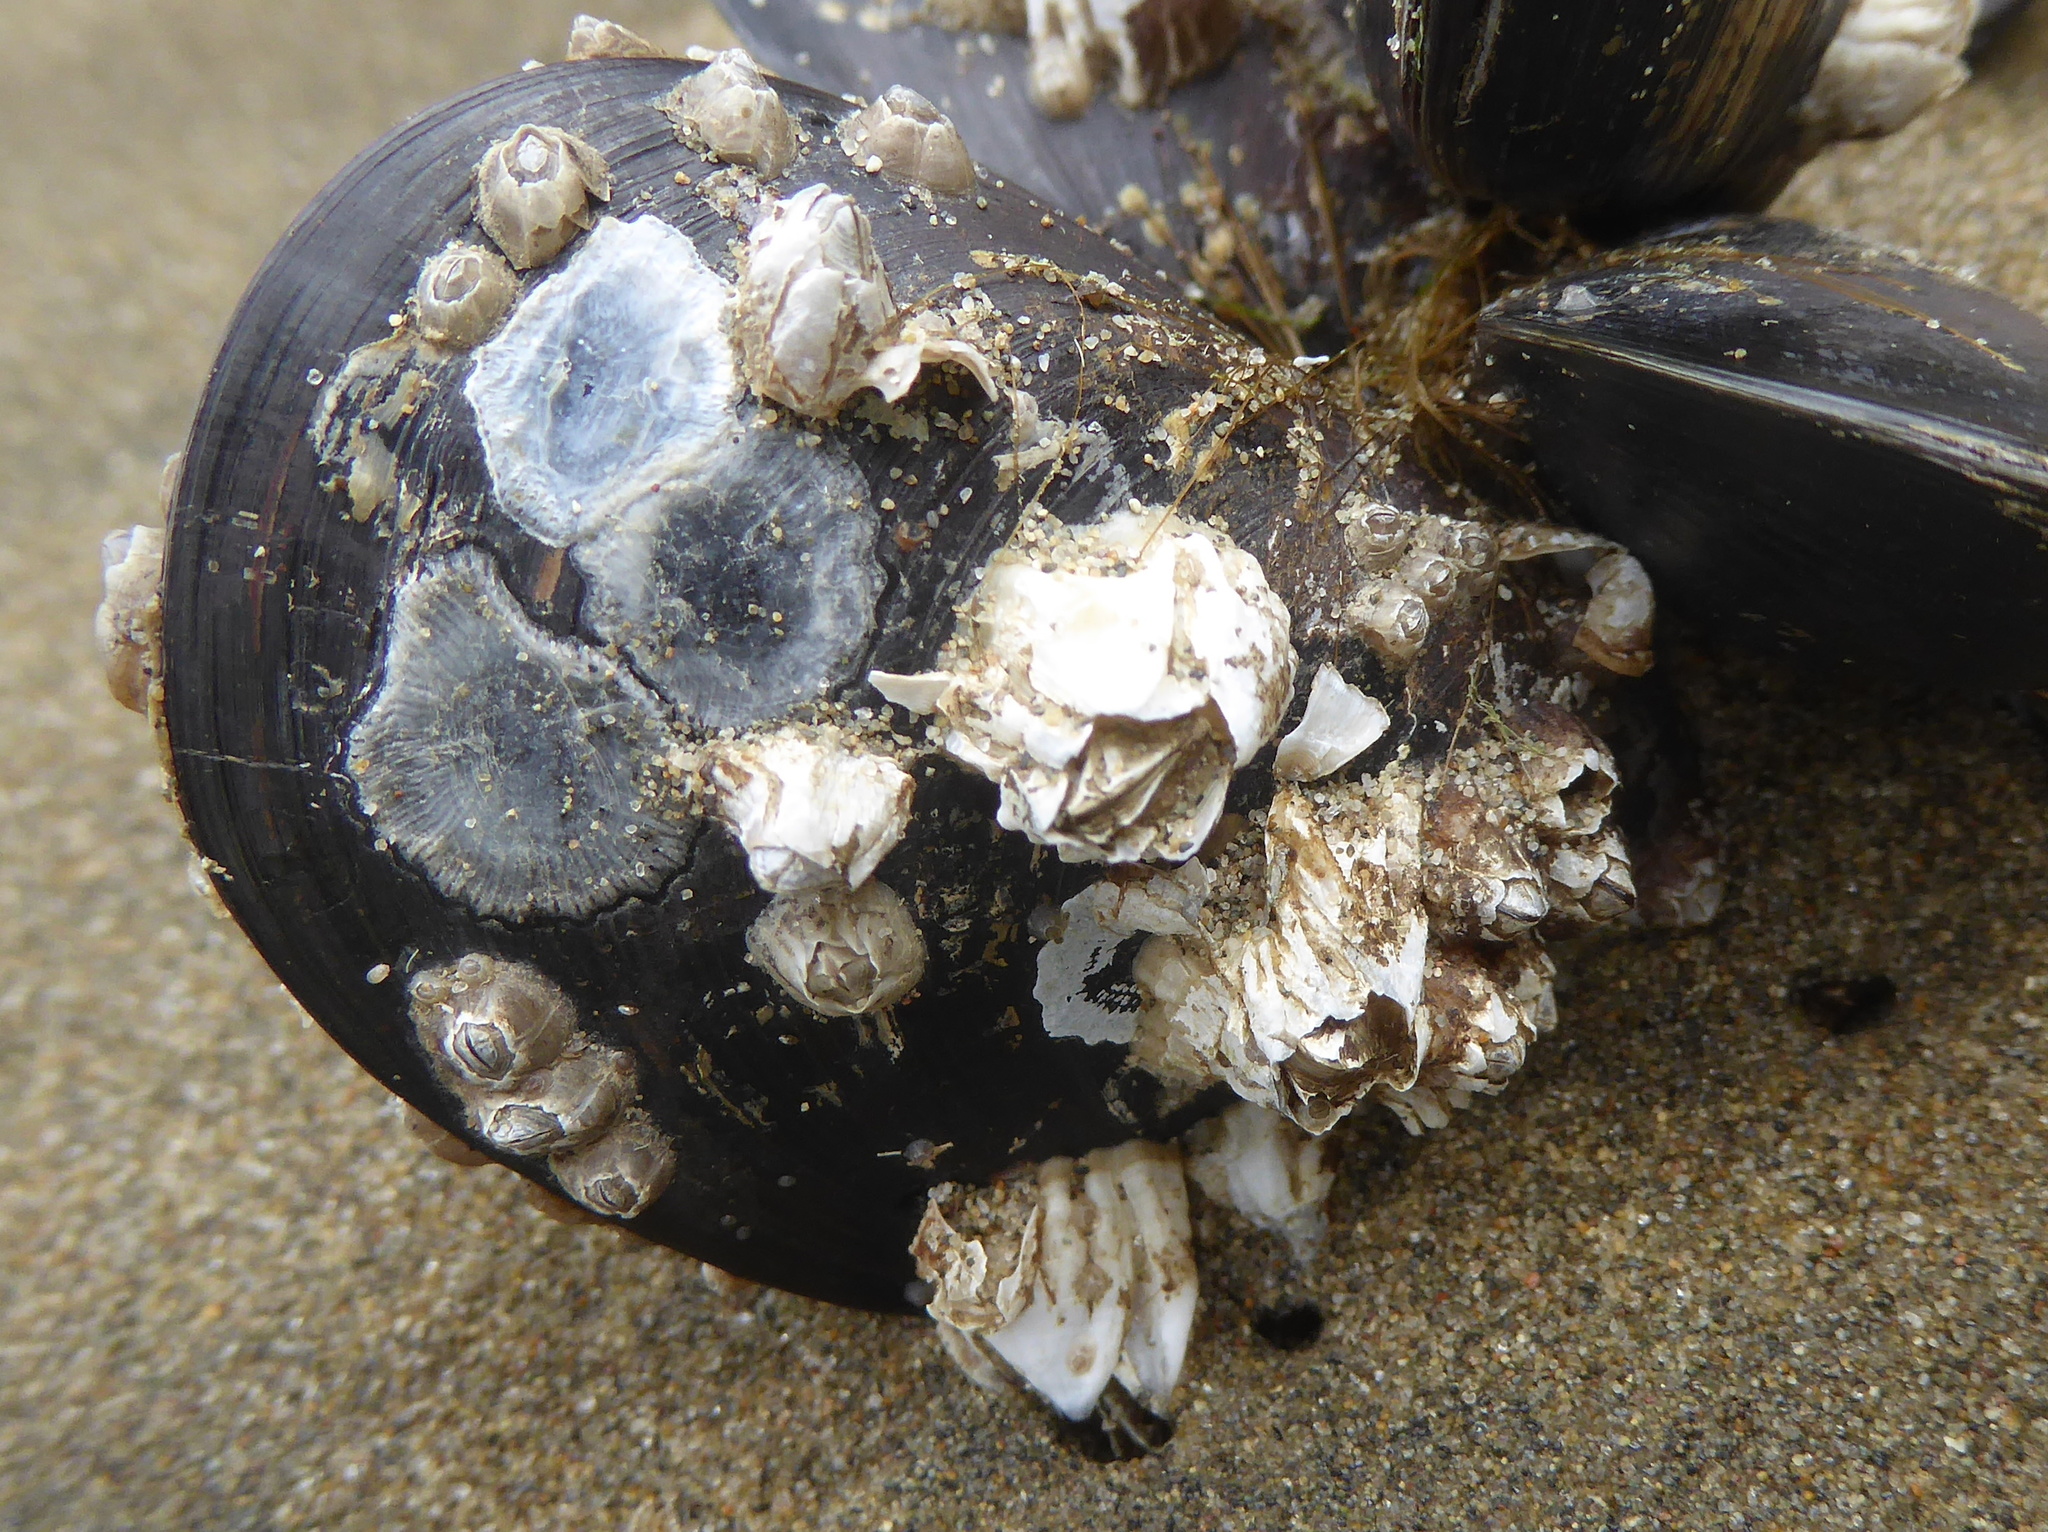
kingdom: Animalia
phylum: Arthropoda
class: Maxillopoda
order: Sessilia
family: Balanidae
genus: Balanus
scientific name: Balanus glandula
